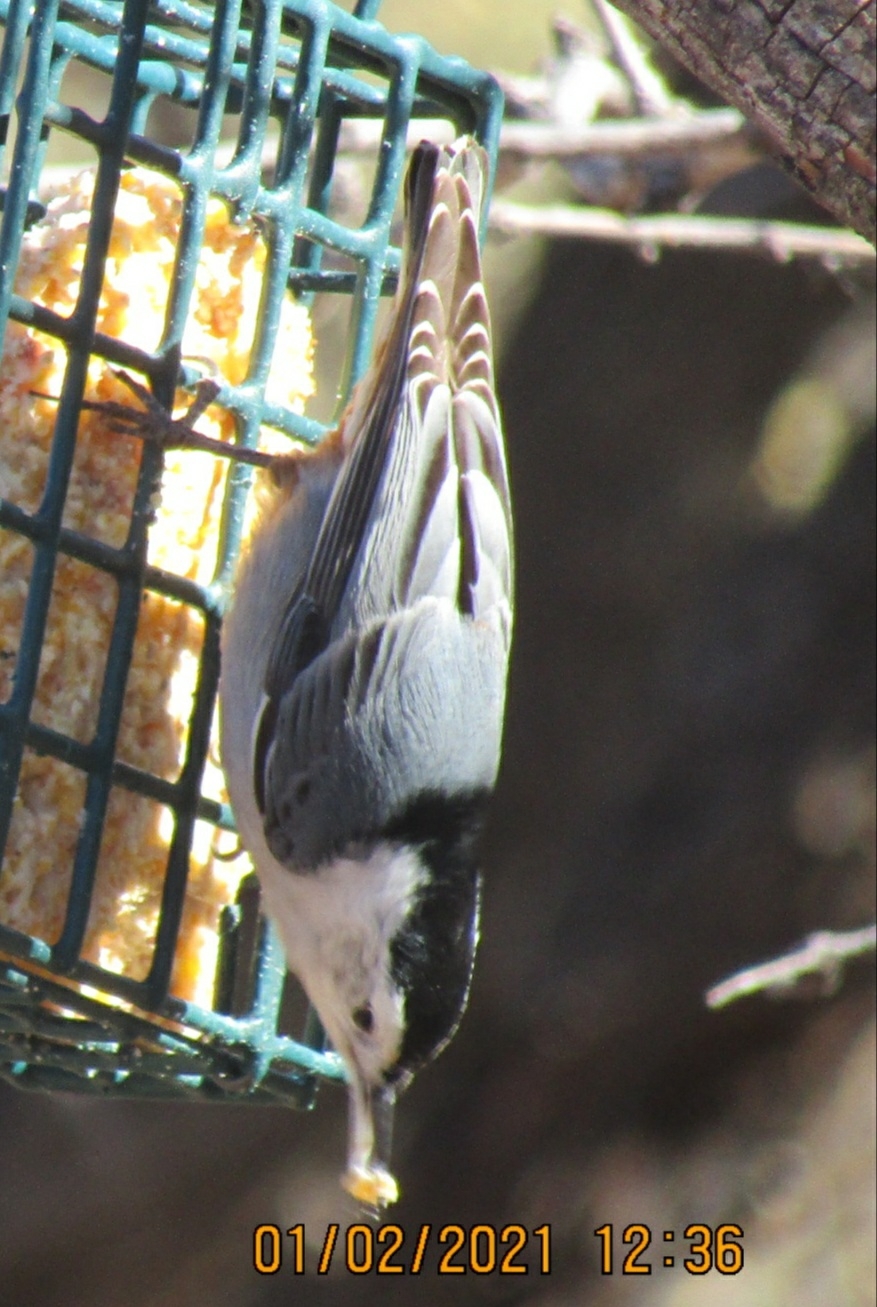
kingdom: Animalia
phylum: Chordata
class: Aves
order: Passeriformes
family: Sittidae
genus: Sitta
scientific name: Sitta carolinensis
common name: White-breasted nuthatch
